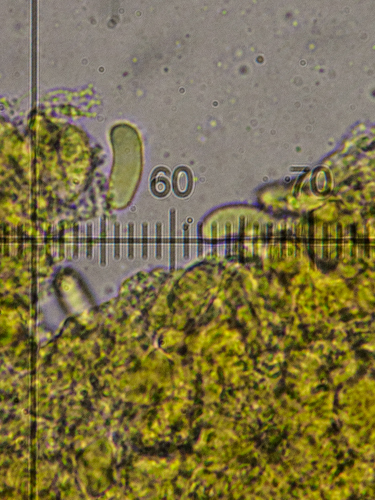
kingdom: Fungi
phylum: Basidiomycota
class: Agaricomycetes
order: Auriculariales
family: Auriculariaceae
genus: Alloexidiopsis
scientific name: Alloexidiopsis calcea
